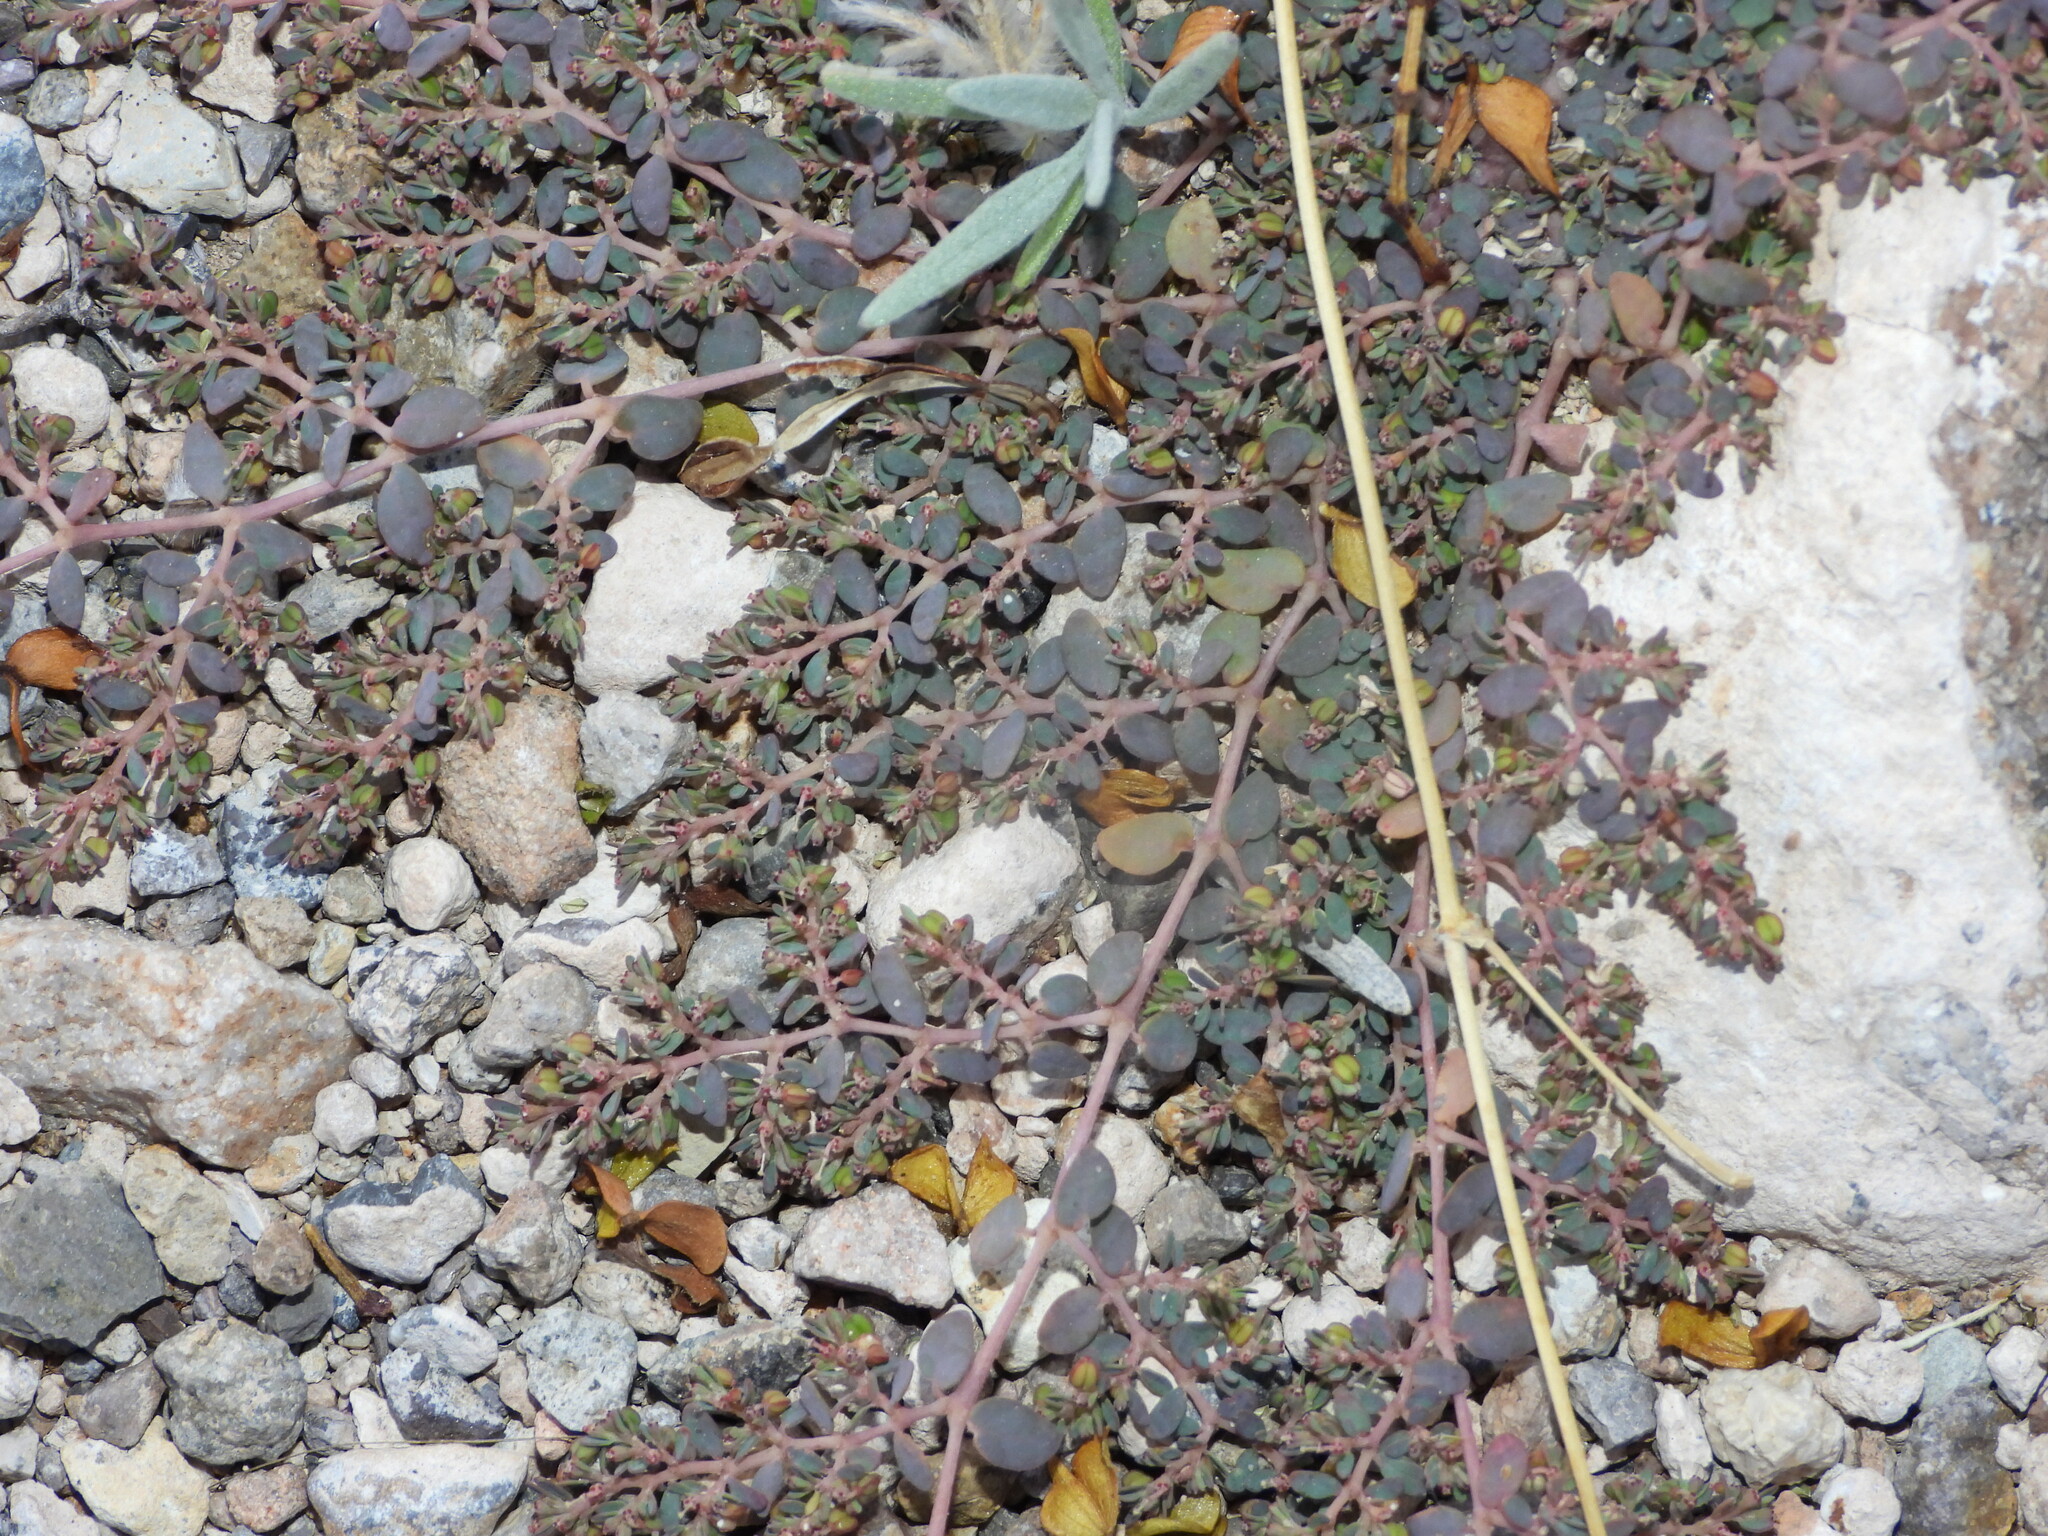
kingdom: Plantae
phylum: Tracheophyta
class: Magnoliopsida
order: Malpighiales
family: Euphorbiaceae
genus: Euphorbia
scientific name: Euphorbia micromera
